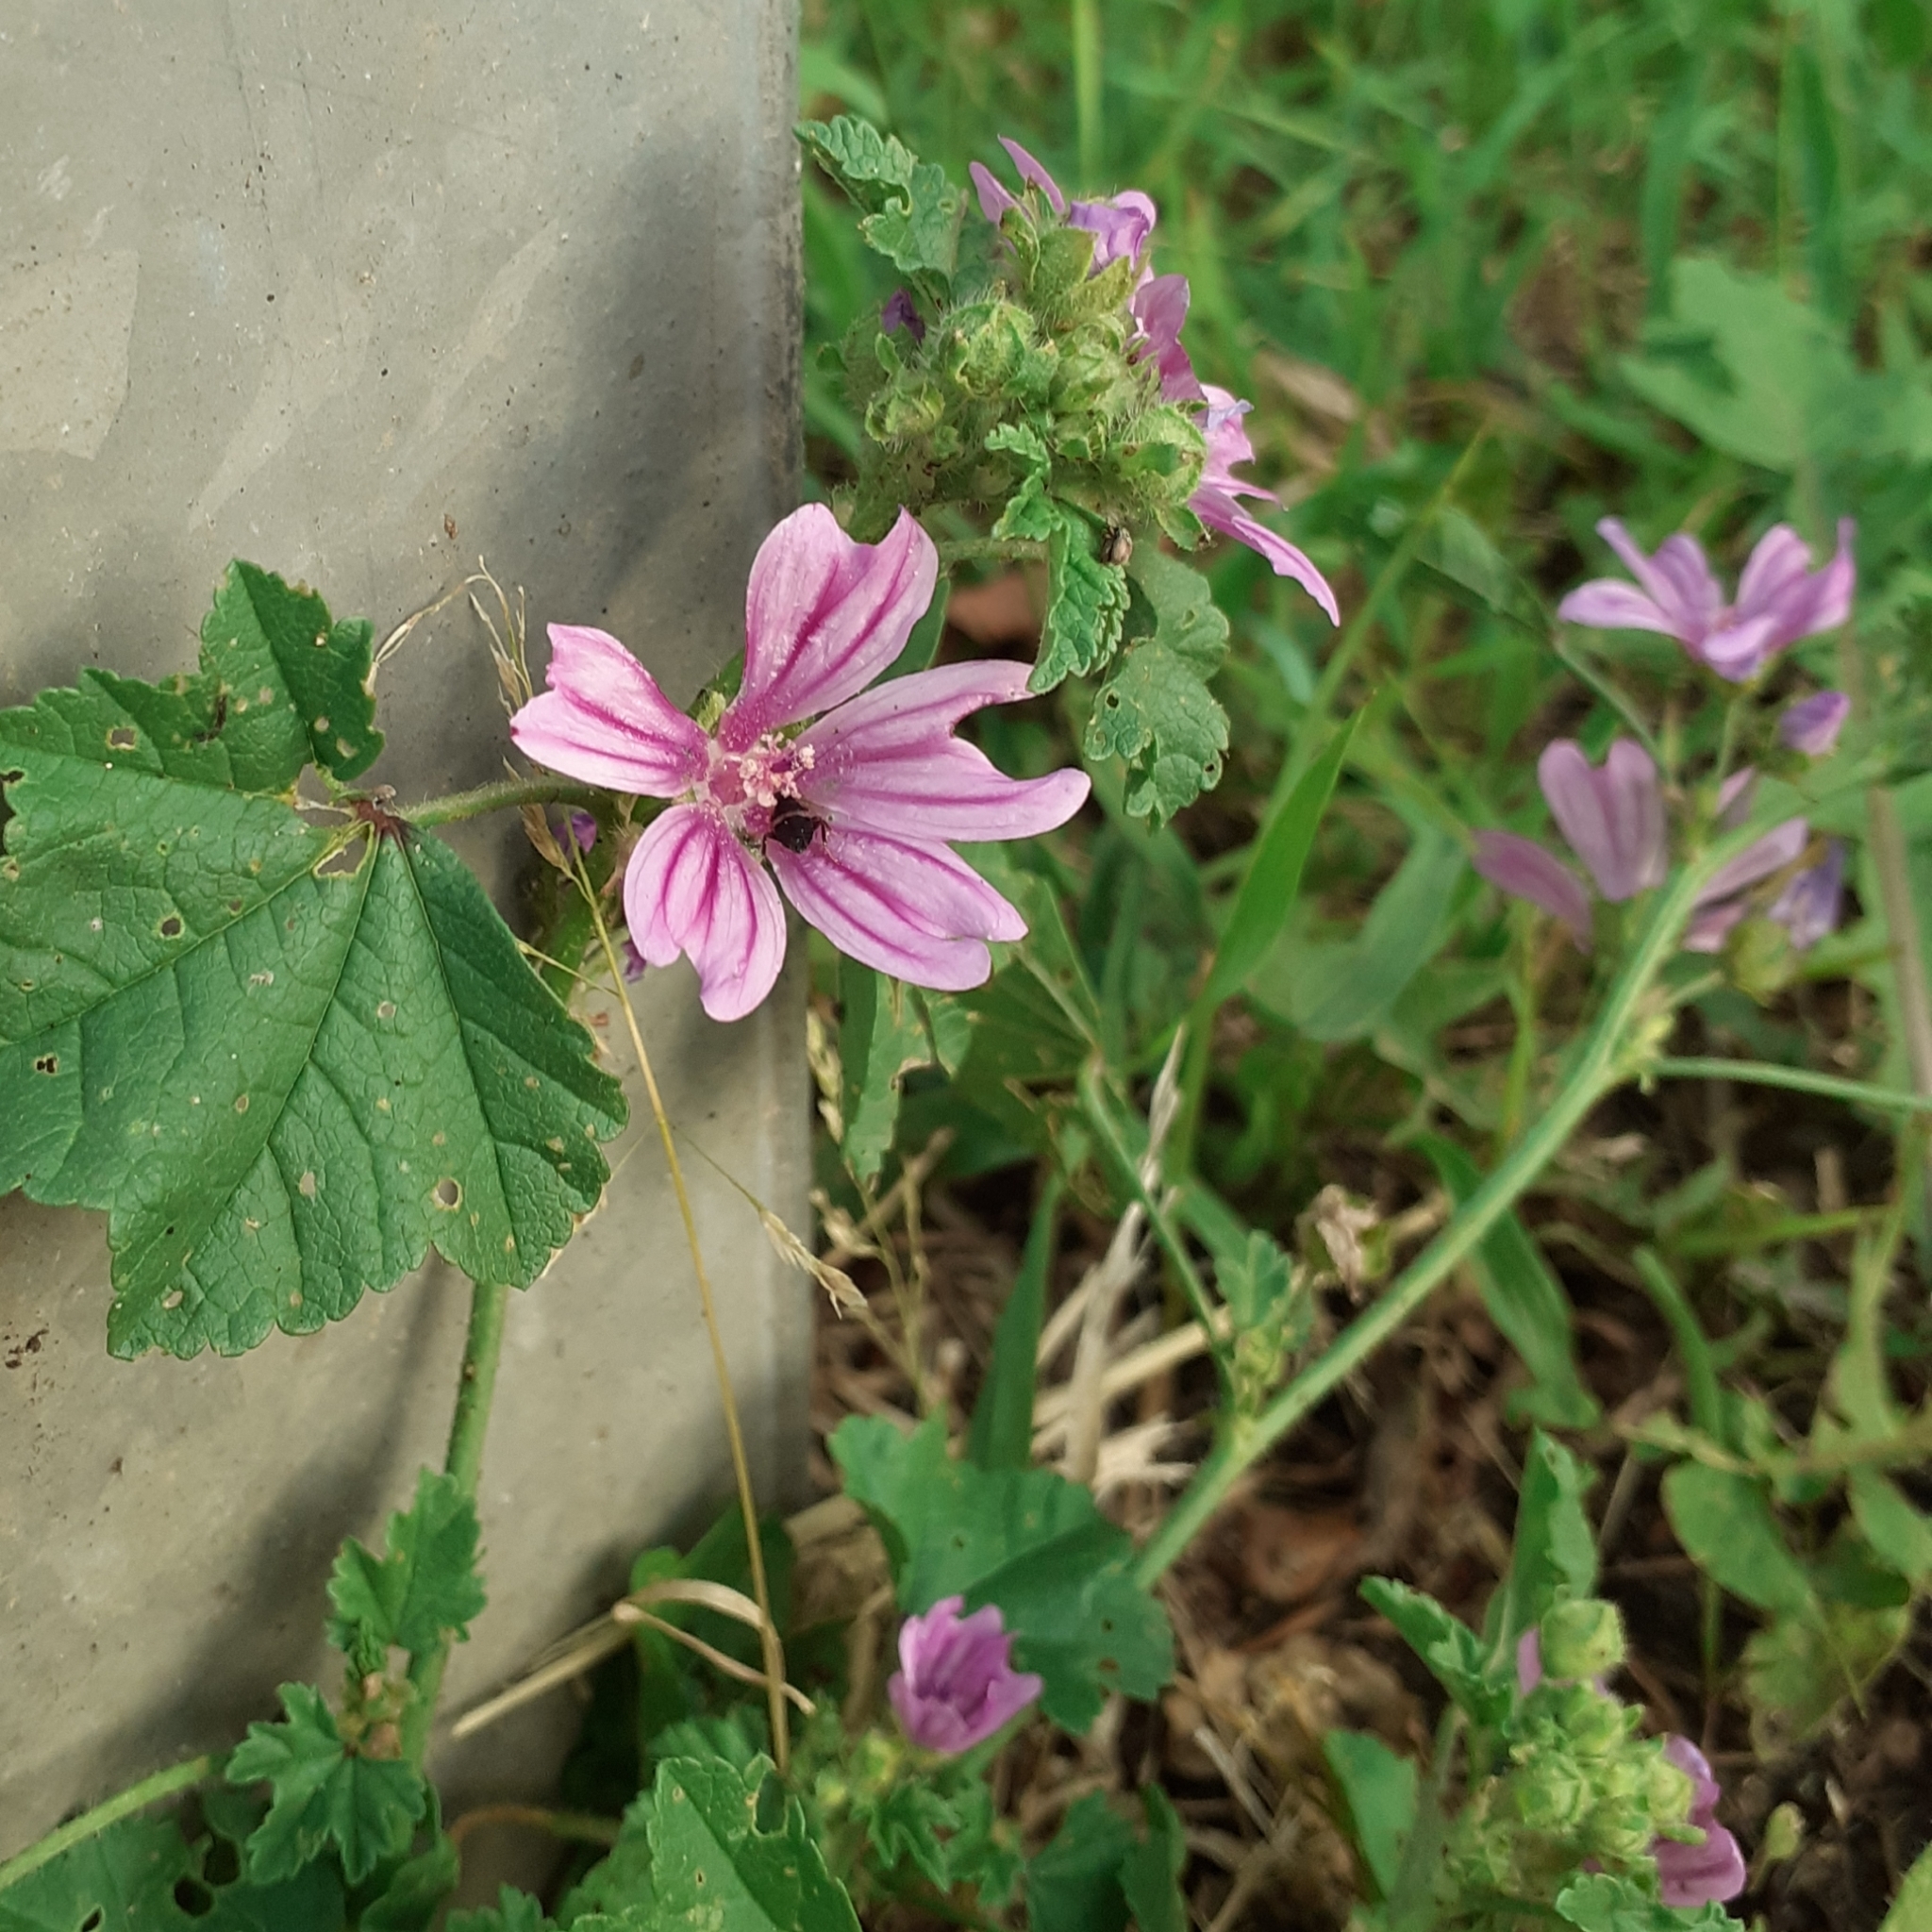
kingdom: Plantae
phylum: Tracheophyta
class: Magnoliopsida
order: Malvales
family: Malvaceae
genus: Malva
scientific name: Malva sylvestris
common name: Common mallow
